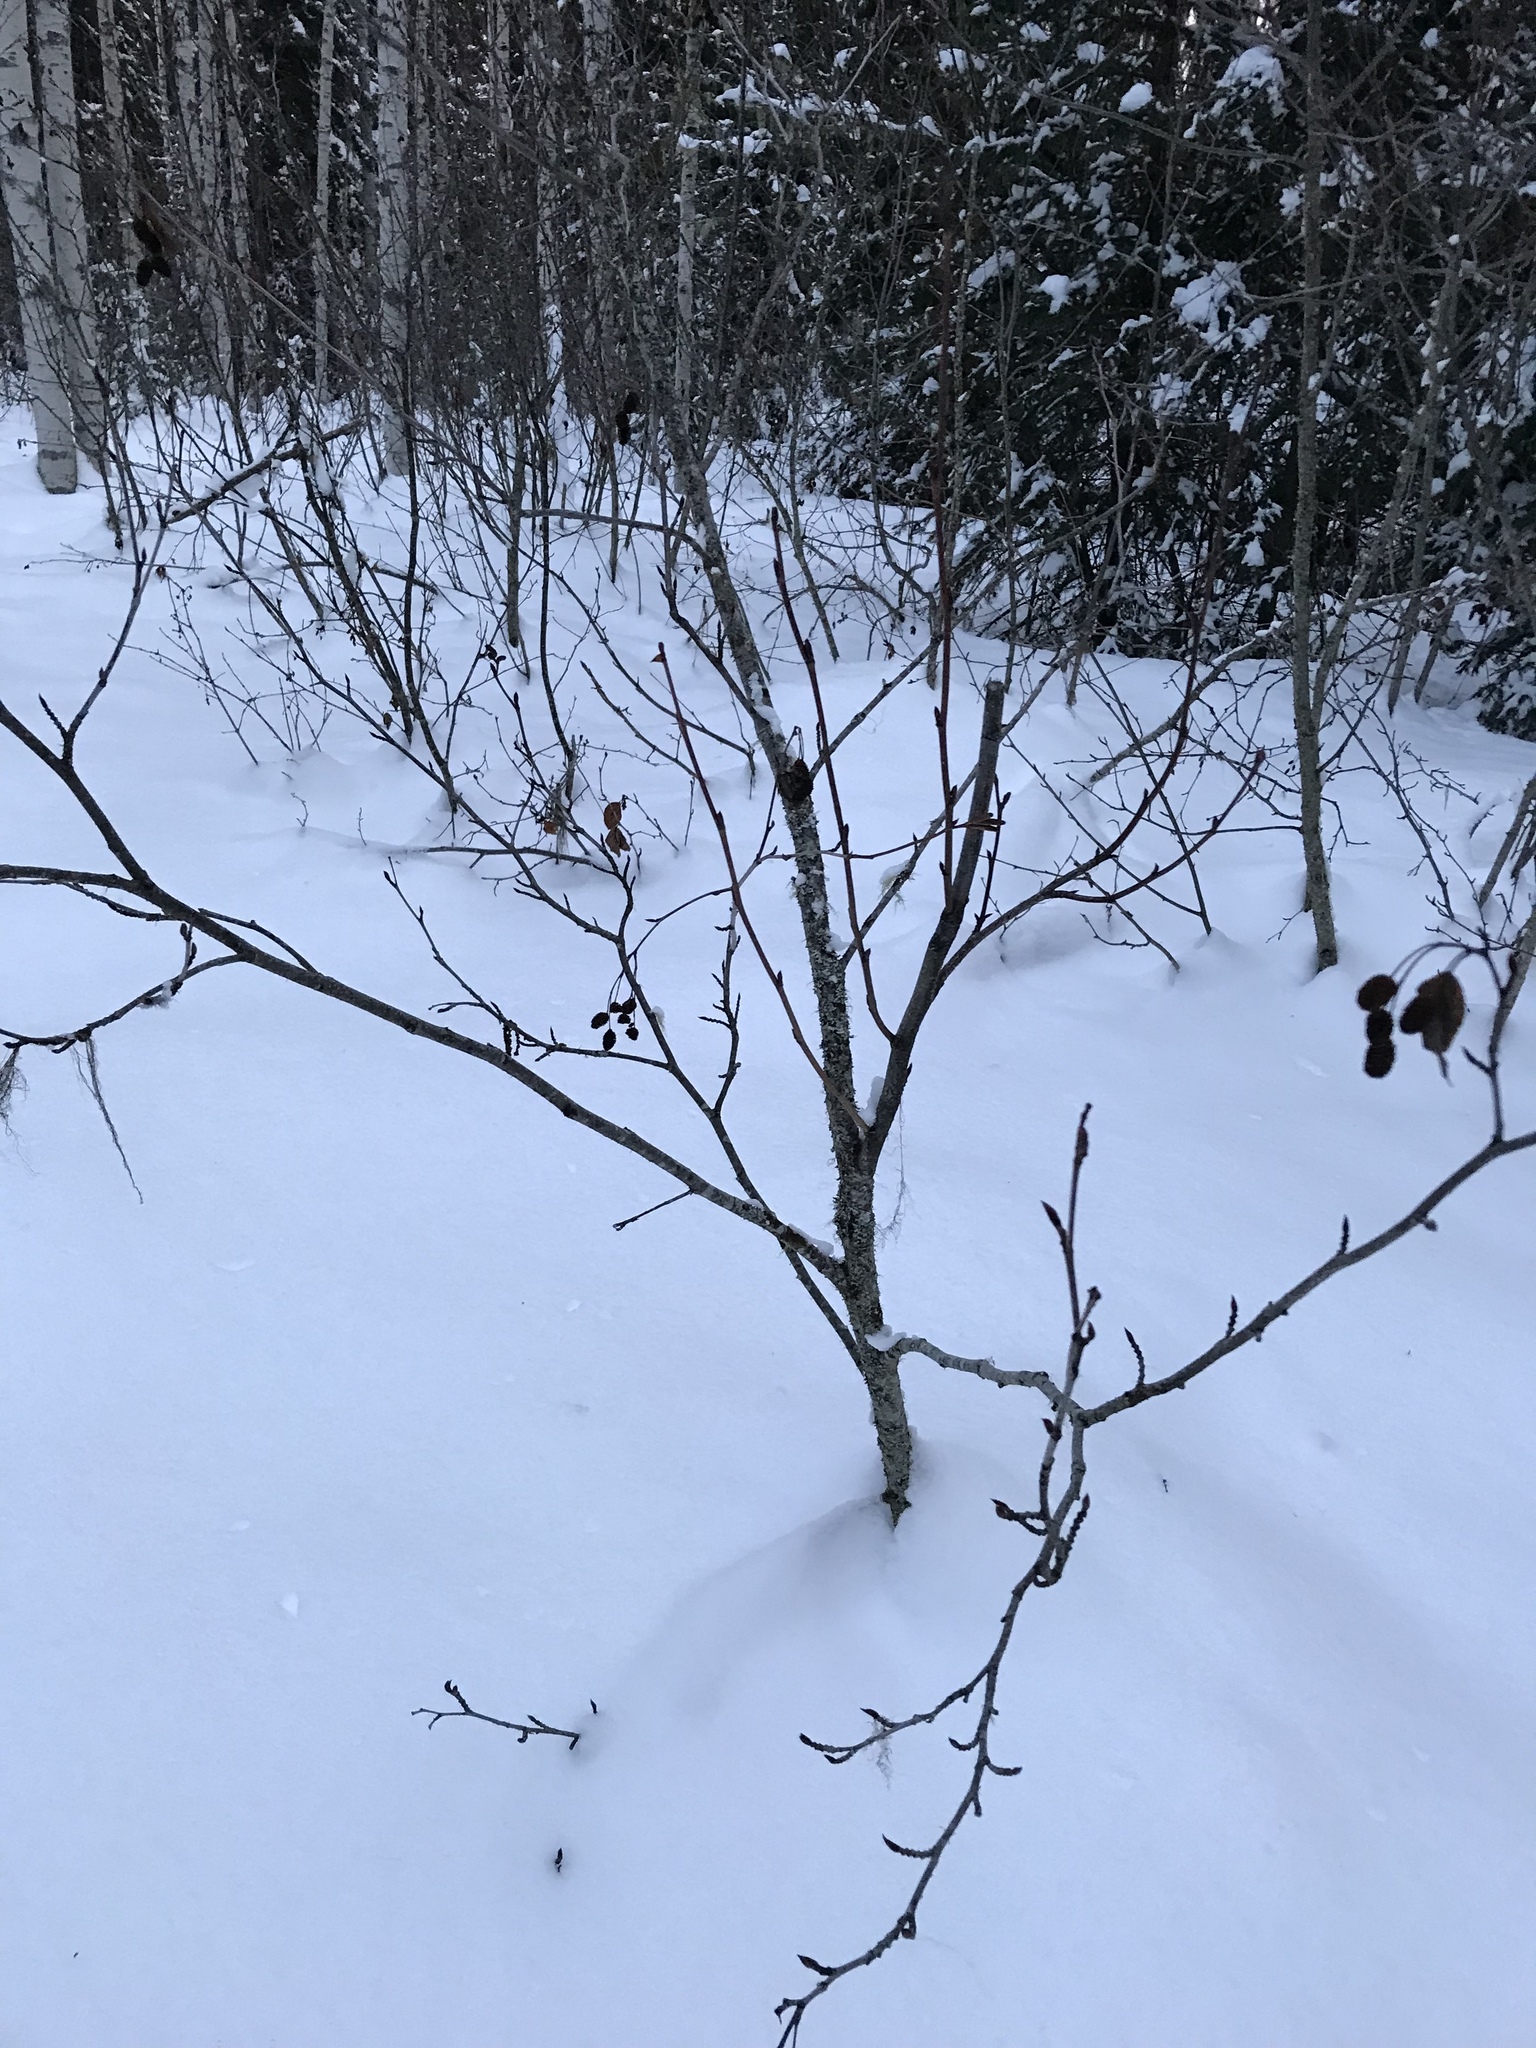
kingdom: Plantae
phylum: Tracheophyta
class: Magnoliopsida
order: Fagales
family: Betulaceae
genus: Alnus
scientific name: Alnus alnobetula
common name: Green alder
